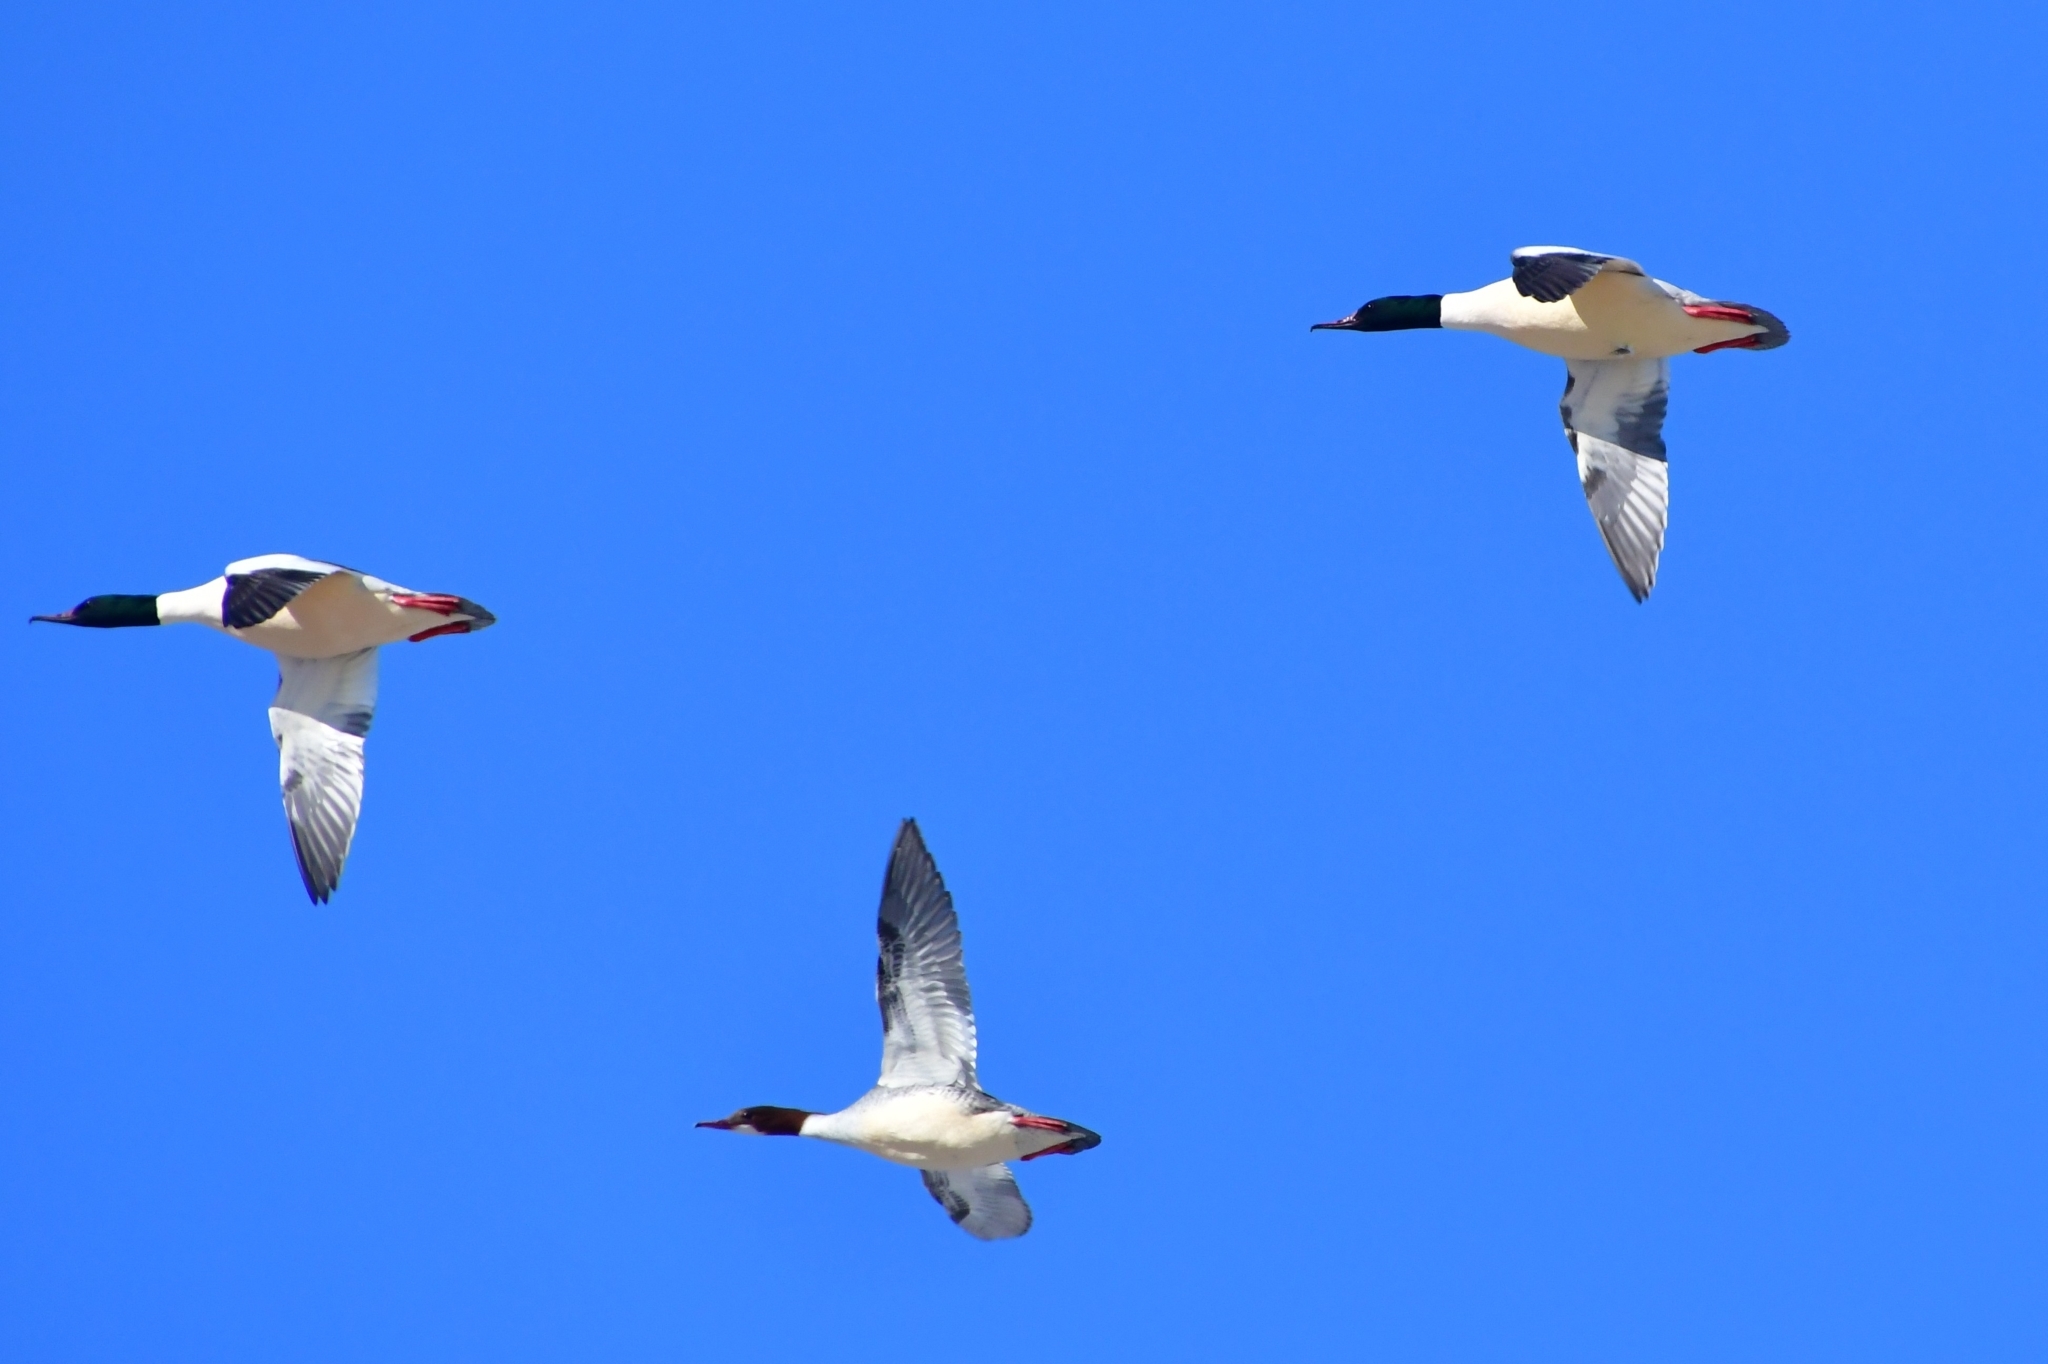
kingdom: Animalia
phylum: Chordata
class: Aves
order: Anseriformes
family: Anatidae
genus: Mergus
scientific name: Mergus merganser
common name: Common merganser
